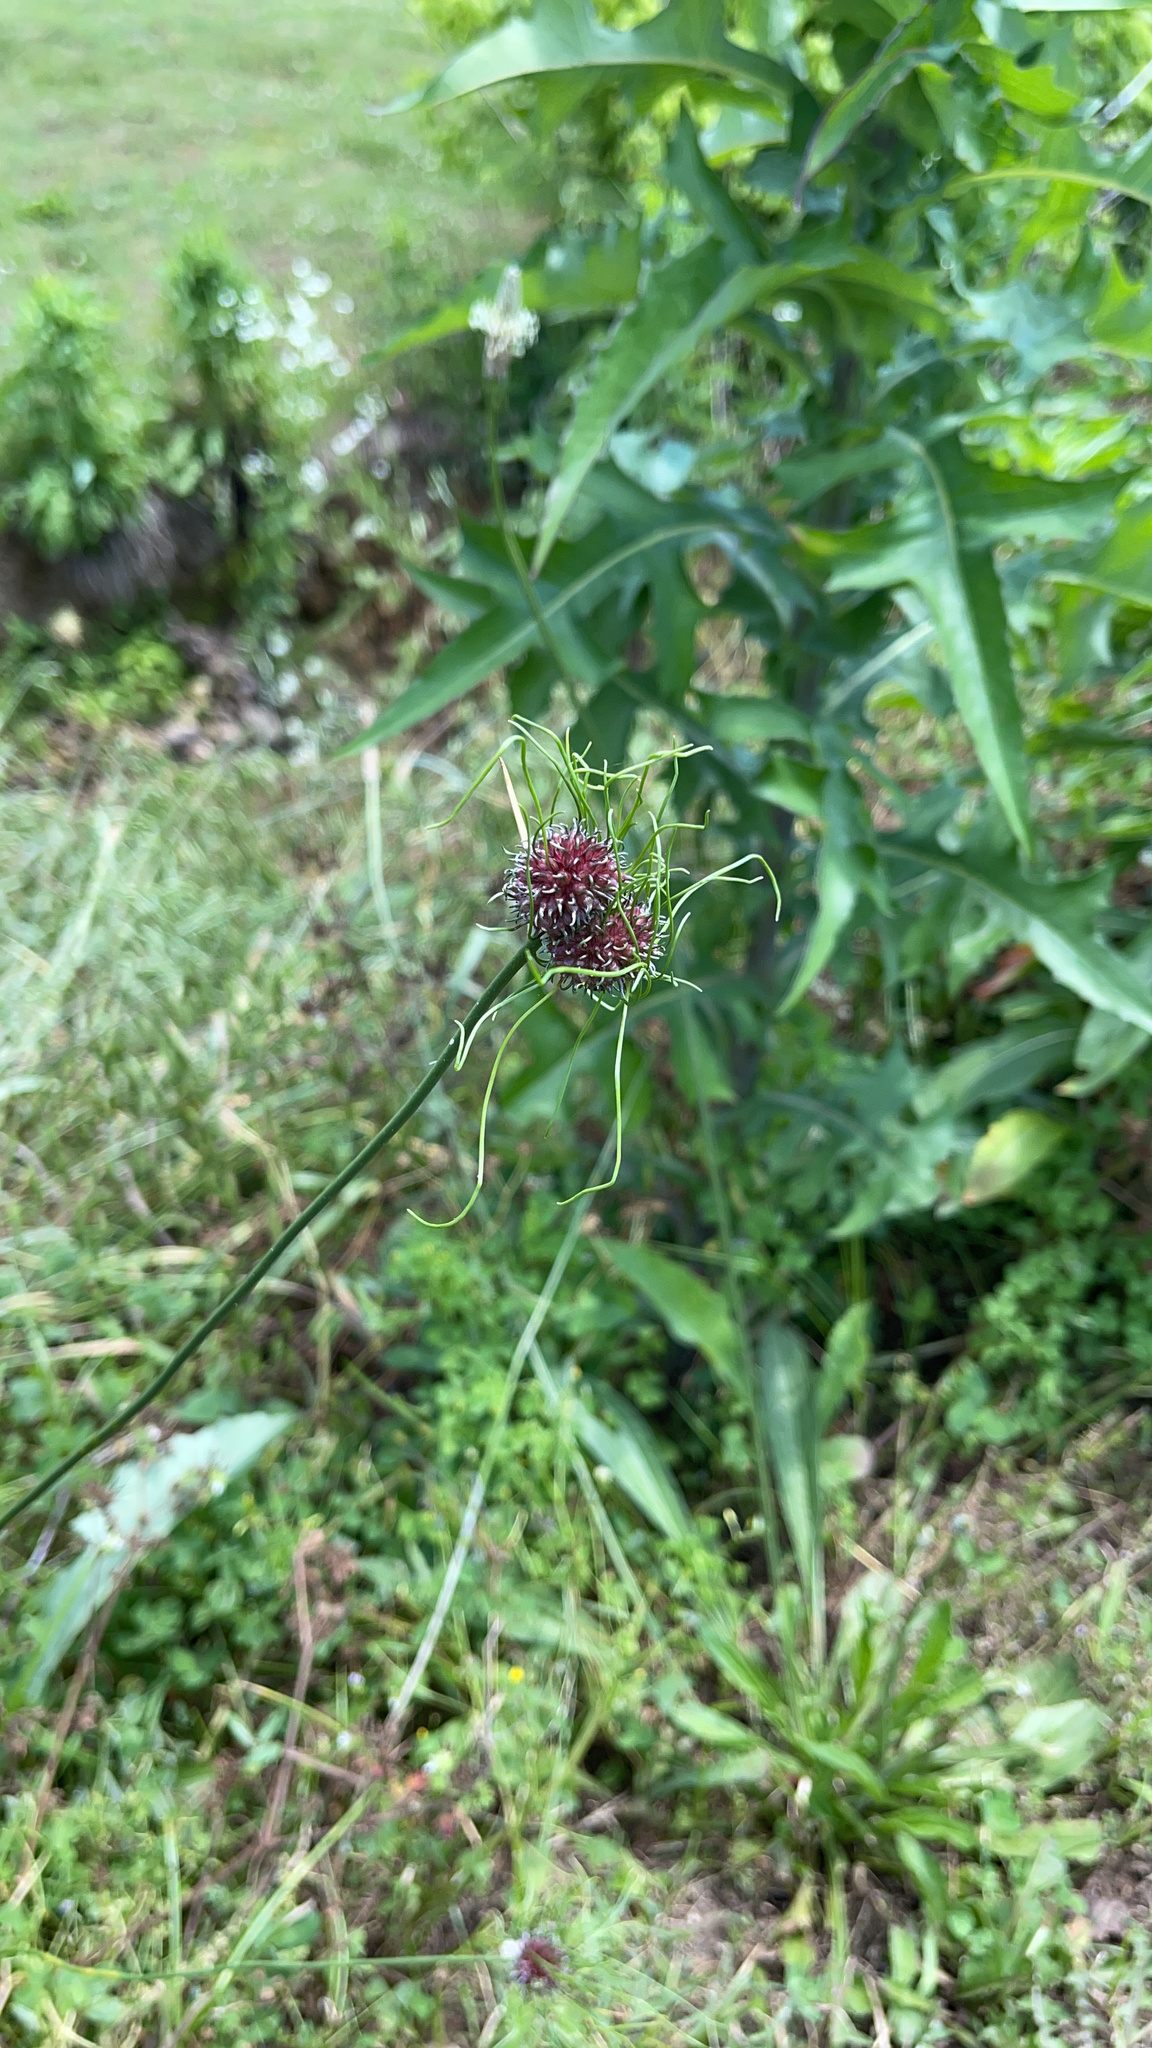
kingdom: Plantae
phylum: Tracheophyta
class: Liliopsida
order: Asparagales
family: Amaryllidaceae
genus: Allium
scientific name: Allium vineale
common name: Crow garlic
